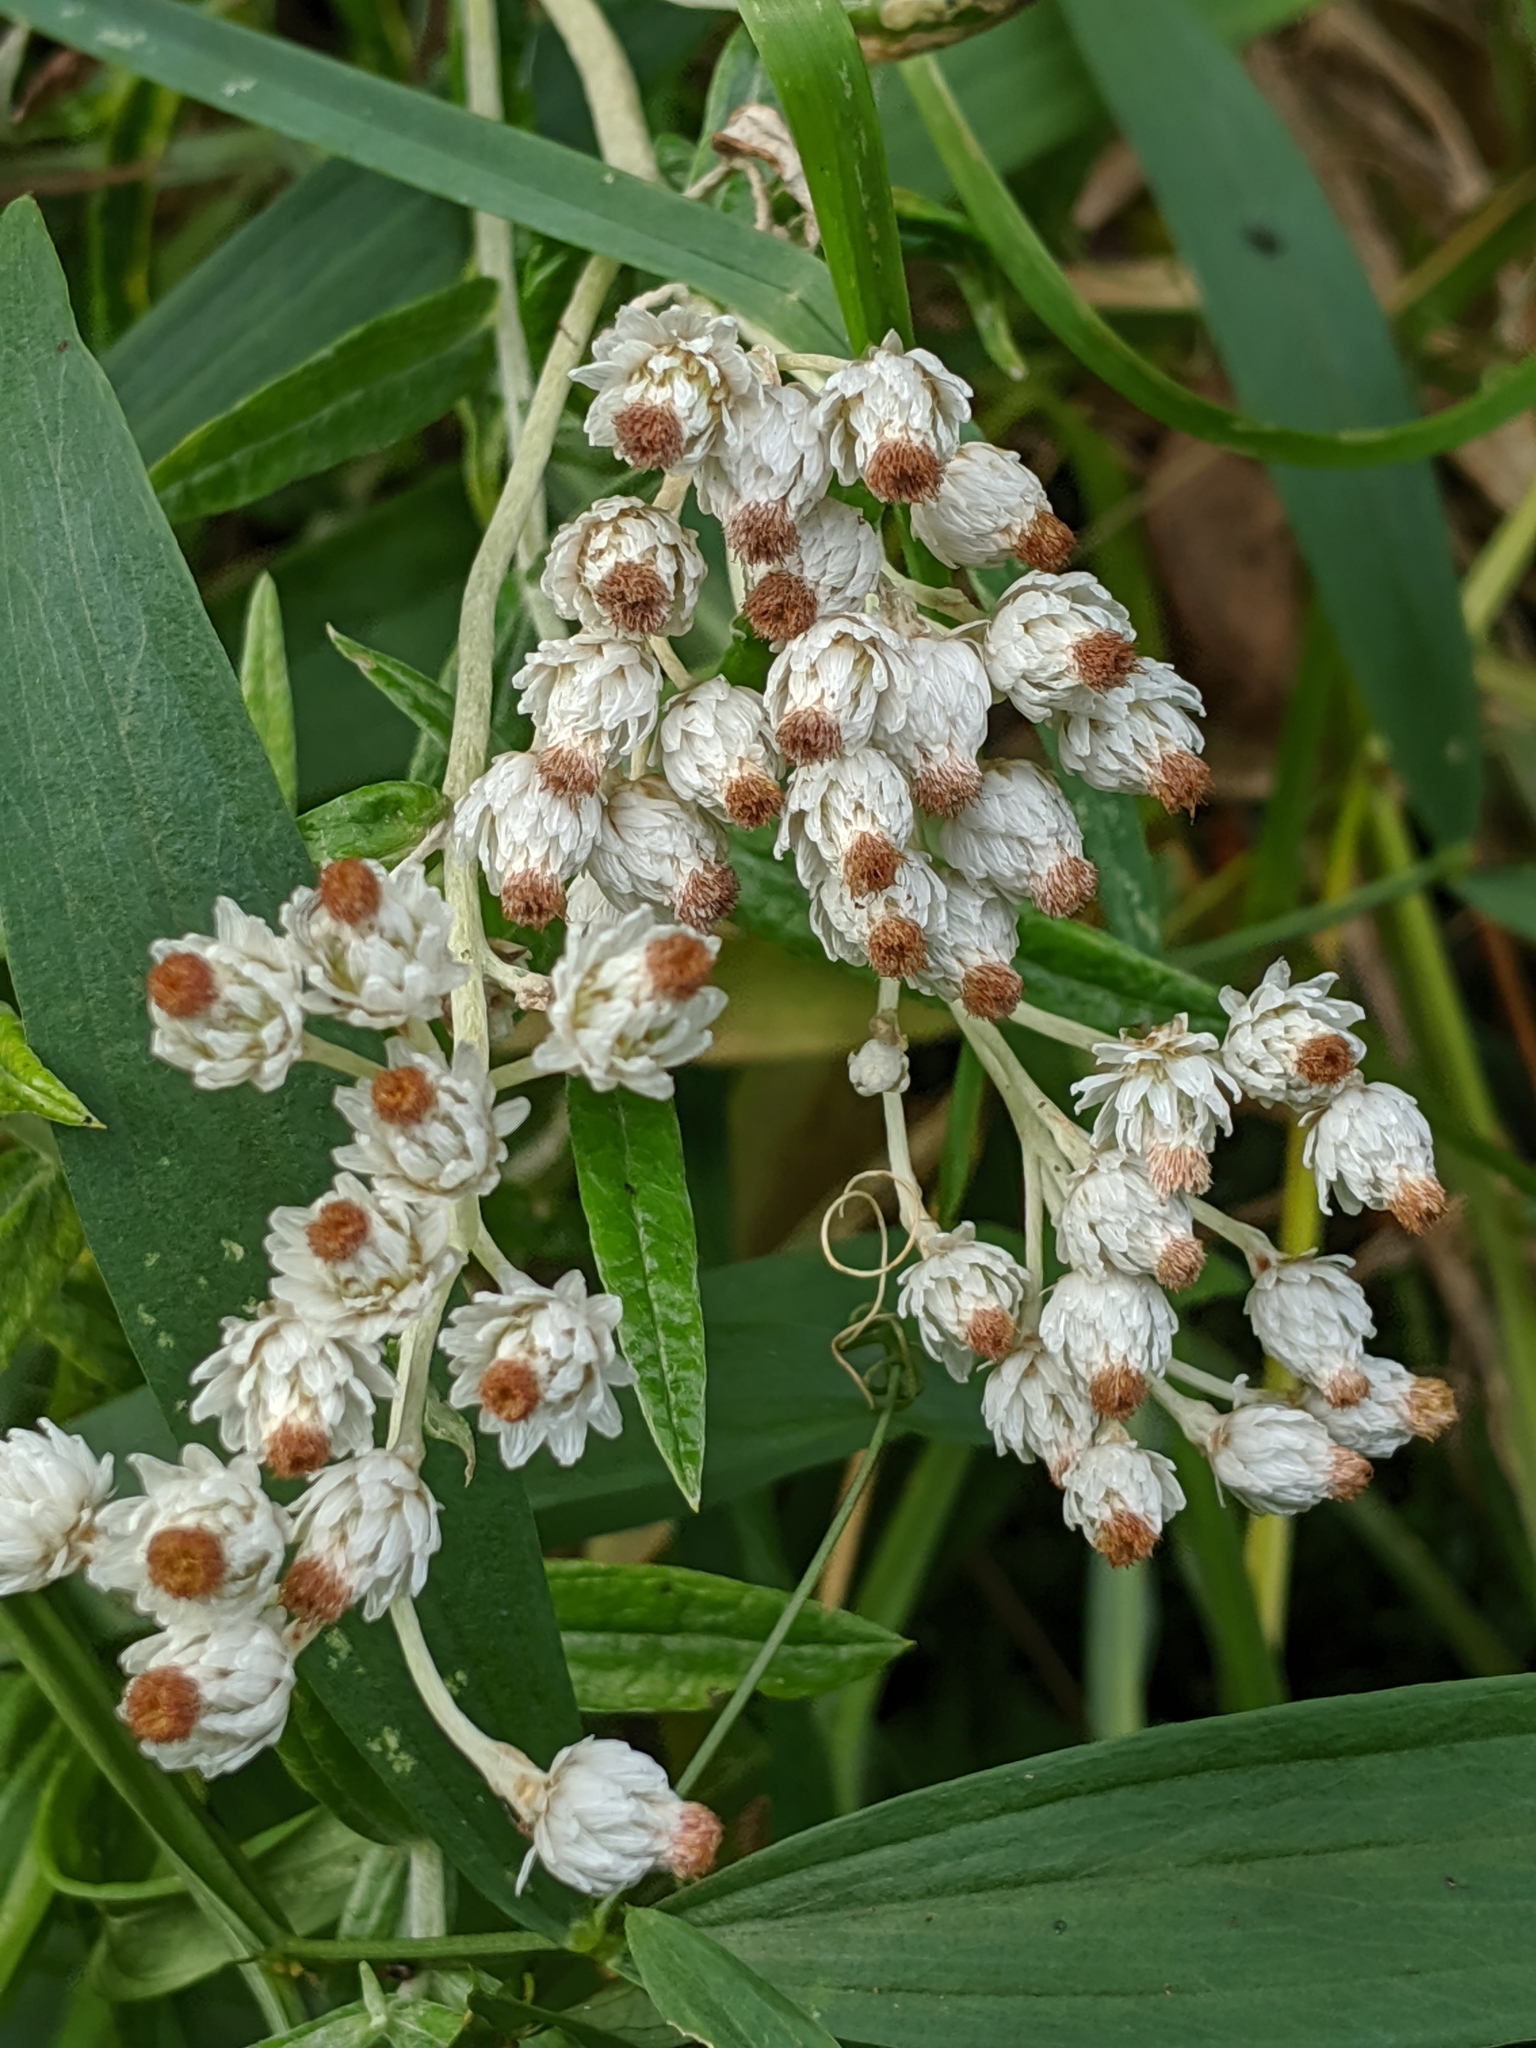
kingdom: Plantae
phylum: Tracheophyta
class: Magnoliopsida
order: Asterales
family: Asteraceae
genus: Anaphalis
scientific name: Anaphalis margaritacea
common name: Pearly everlasting
